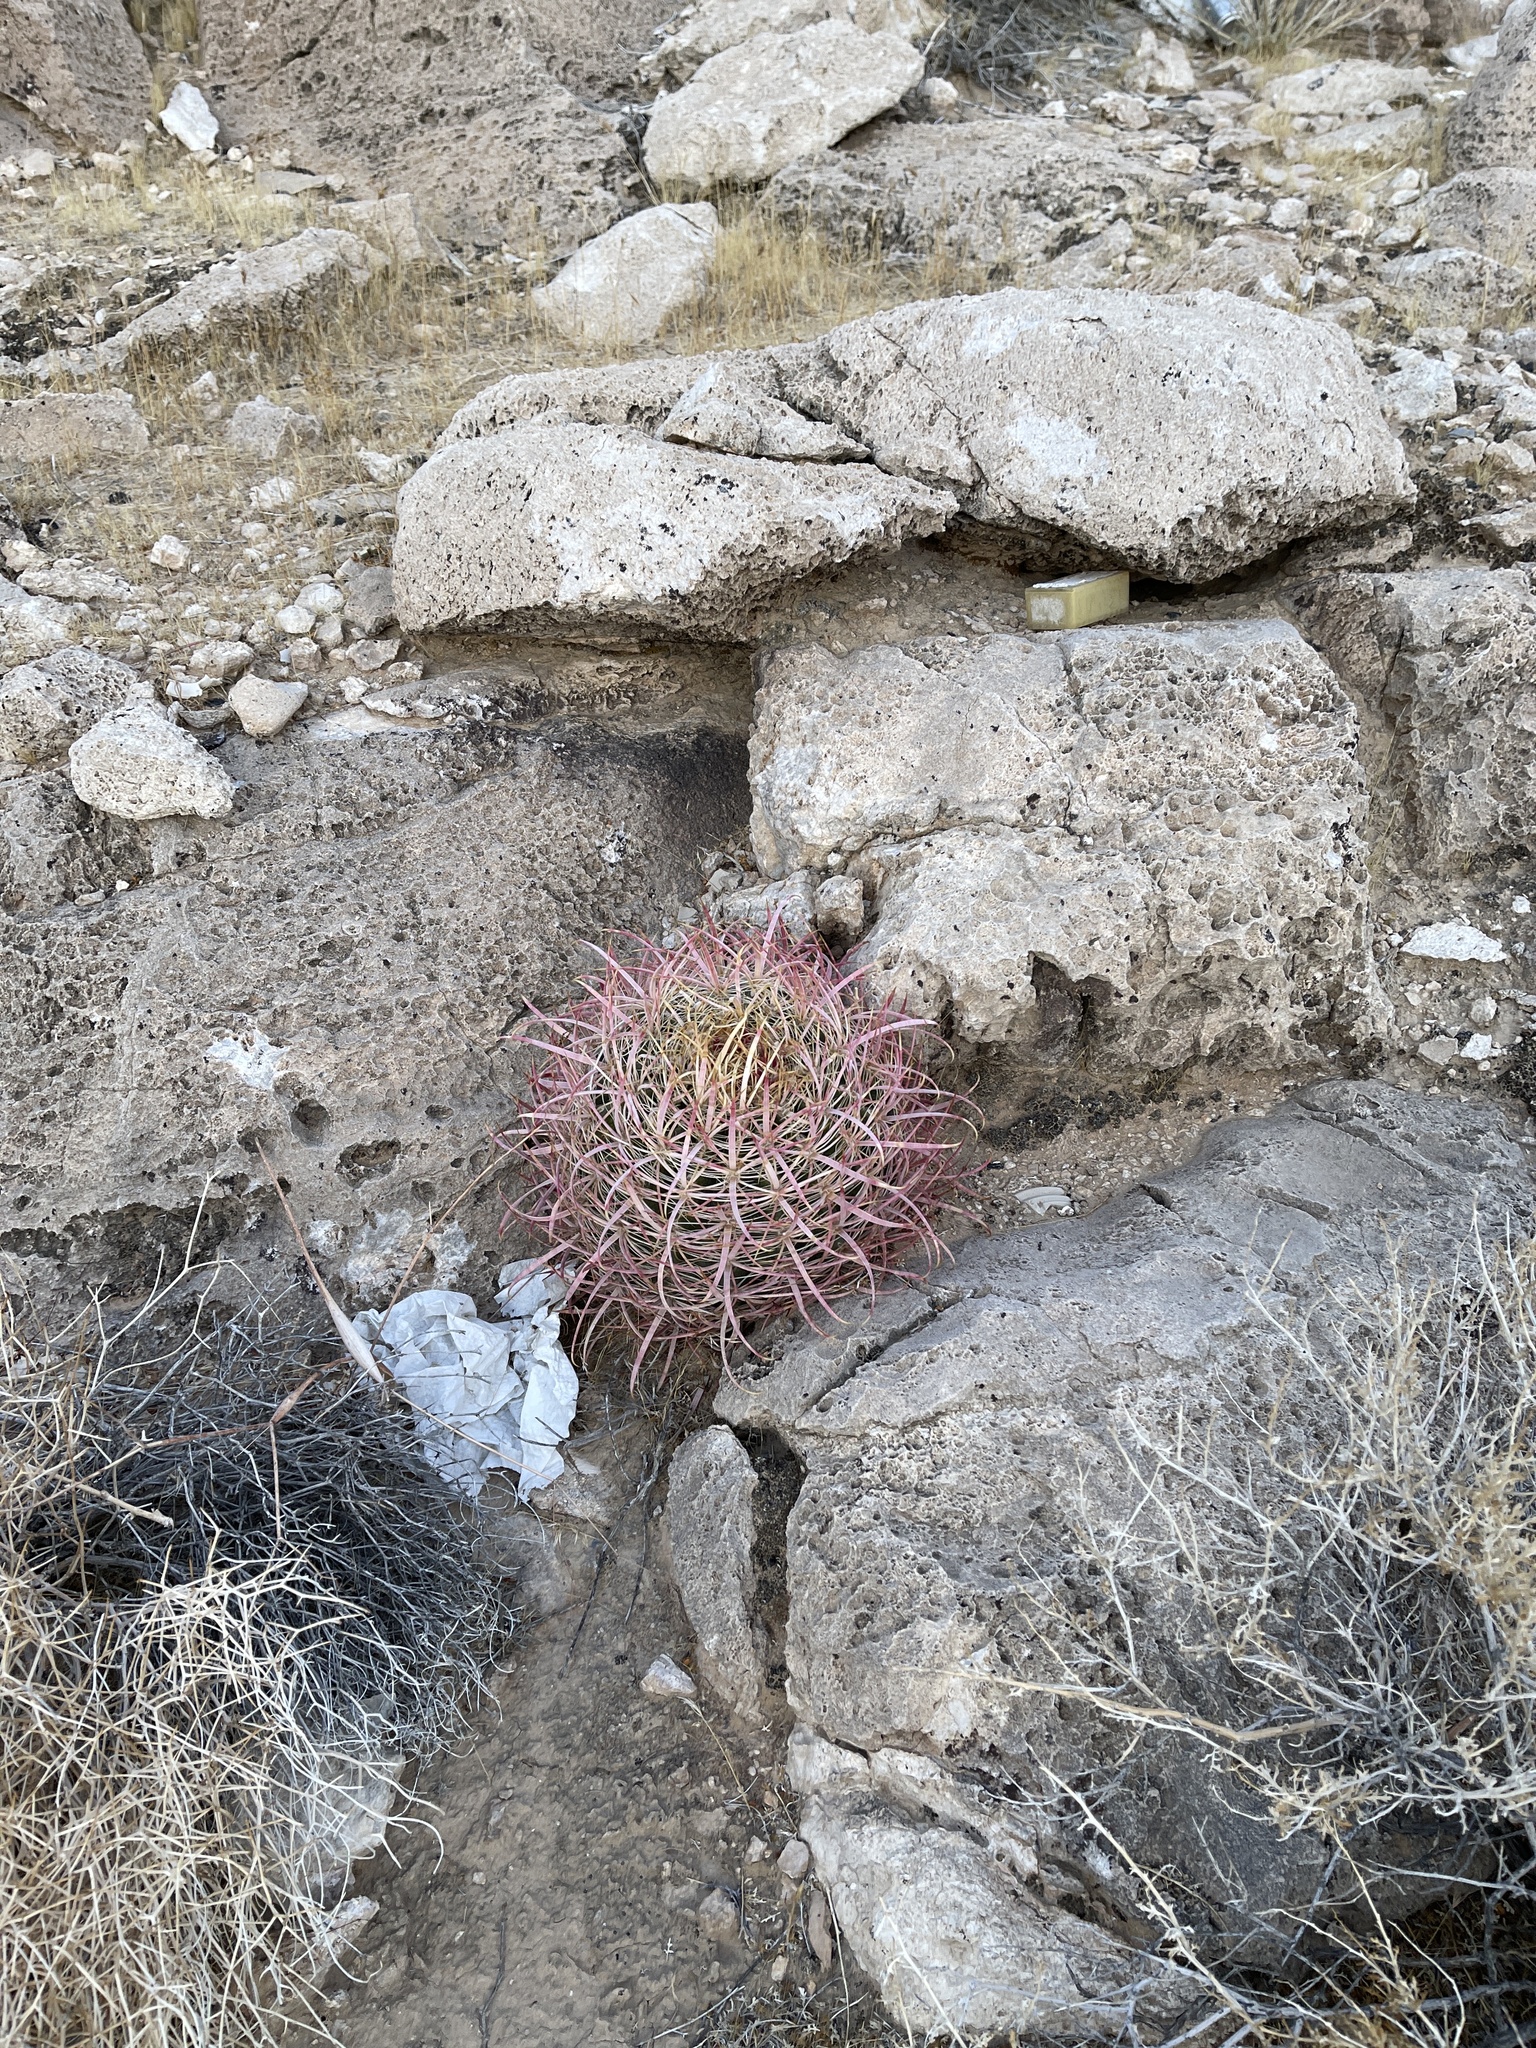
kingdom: Plantae
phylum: Tracheophyta
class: Magnoliopsida
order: Caryophyllales
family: Cactaceae
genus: Ferocactus
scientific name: Ferocactus cylindraceus
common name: California barrel cactus
